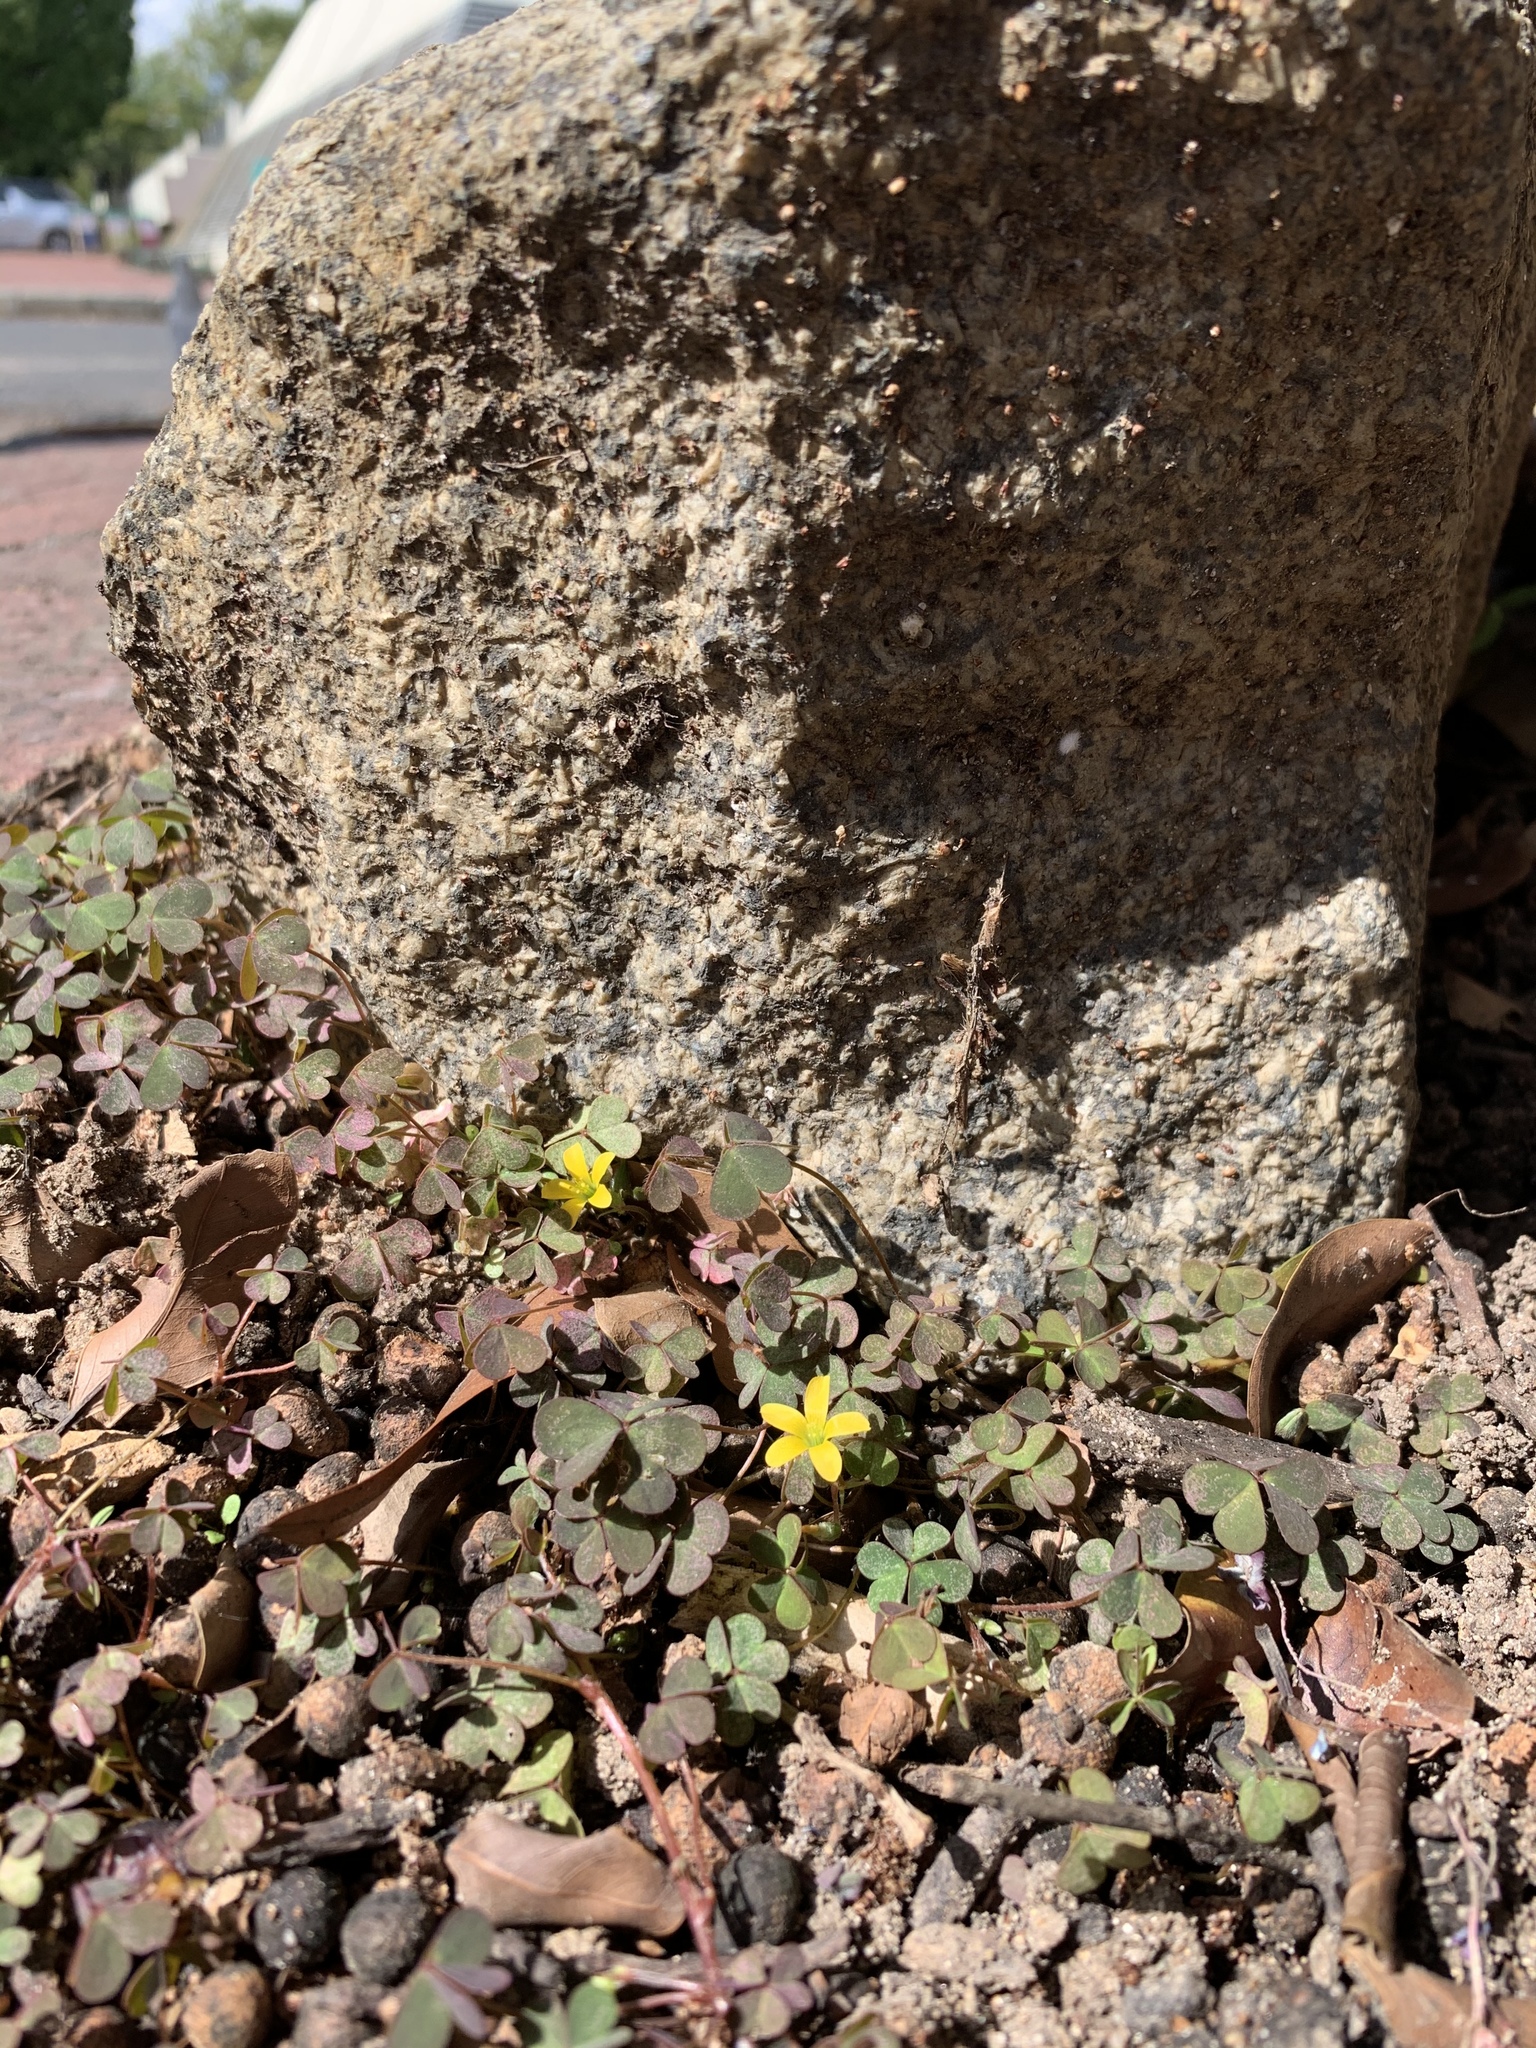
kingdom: Plantae
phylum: Tracheophyta
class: Magnoliopsida
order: Oxalidales
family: Oxalidaceae
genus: Oxalis
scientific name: Oxalis corniculata
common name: Procumbent yellow-sorrel
